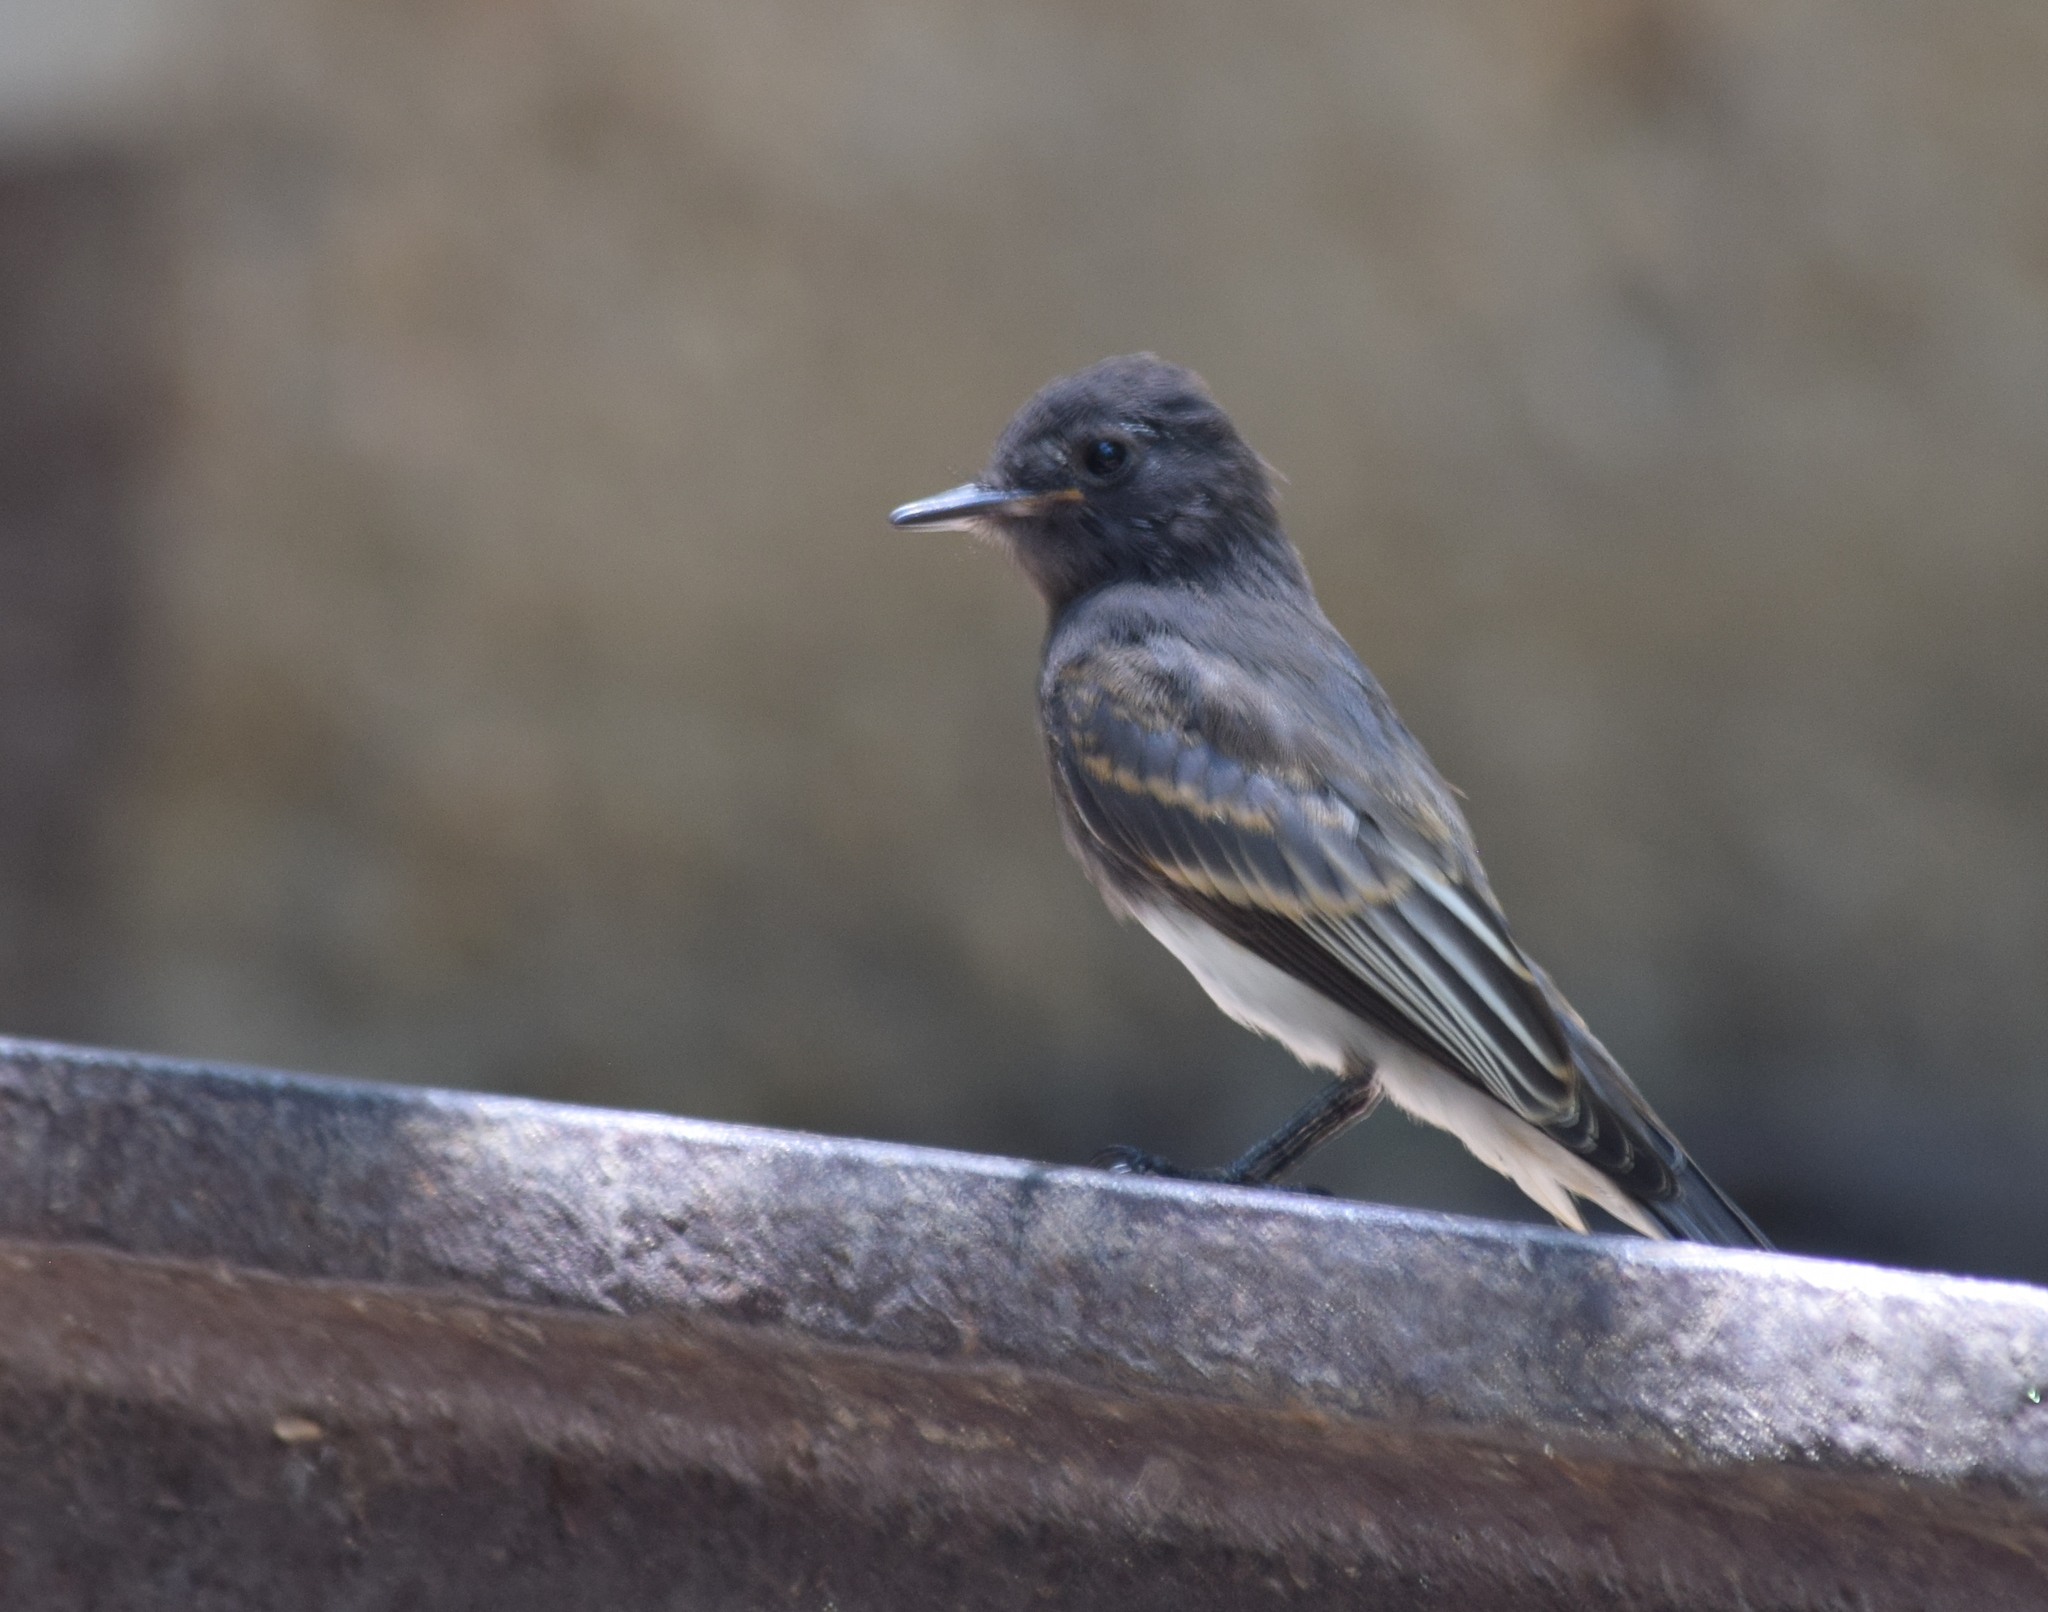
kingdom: Animalia
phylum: Chordata
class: Aves
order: Passeriformes
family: Tyrannidae
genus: Sayornis
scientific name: Sayornis nigricans
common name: Black phoebe
